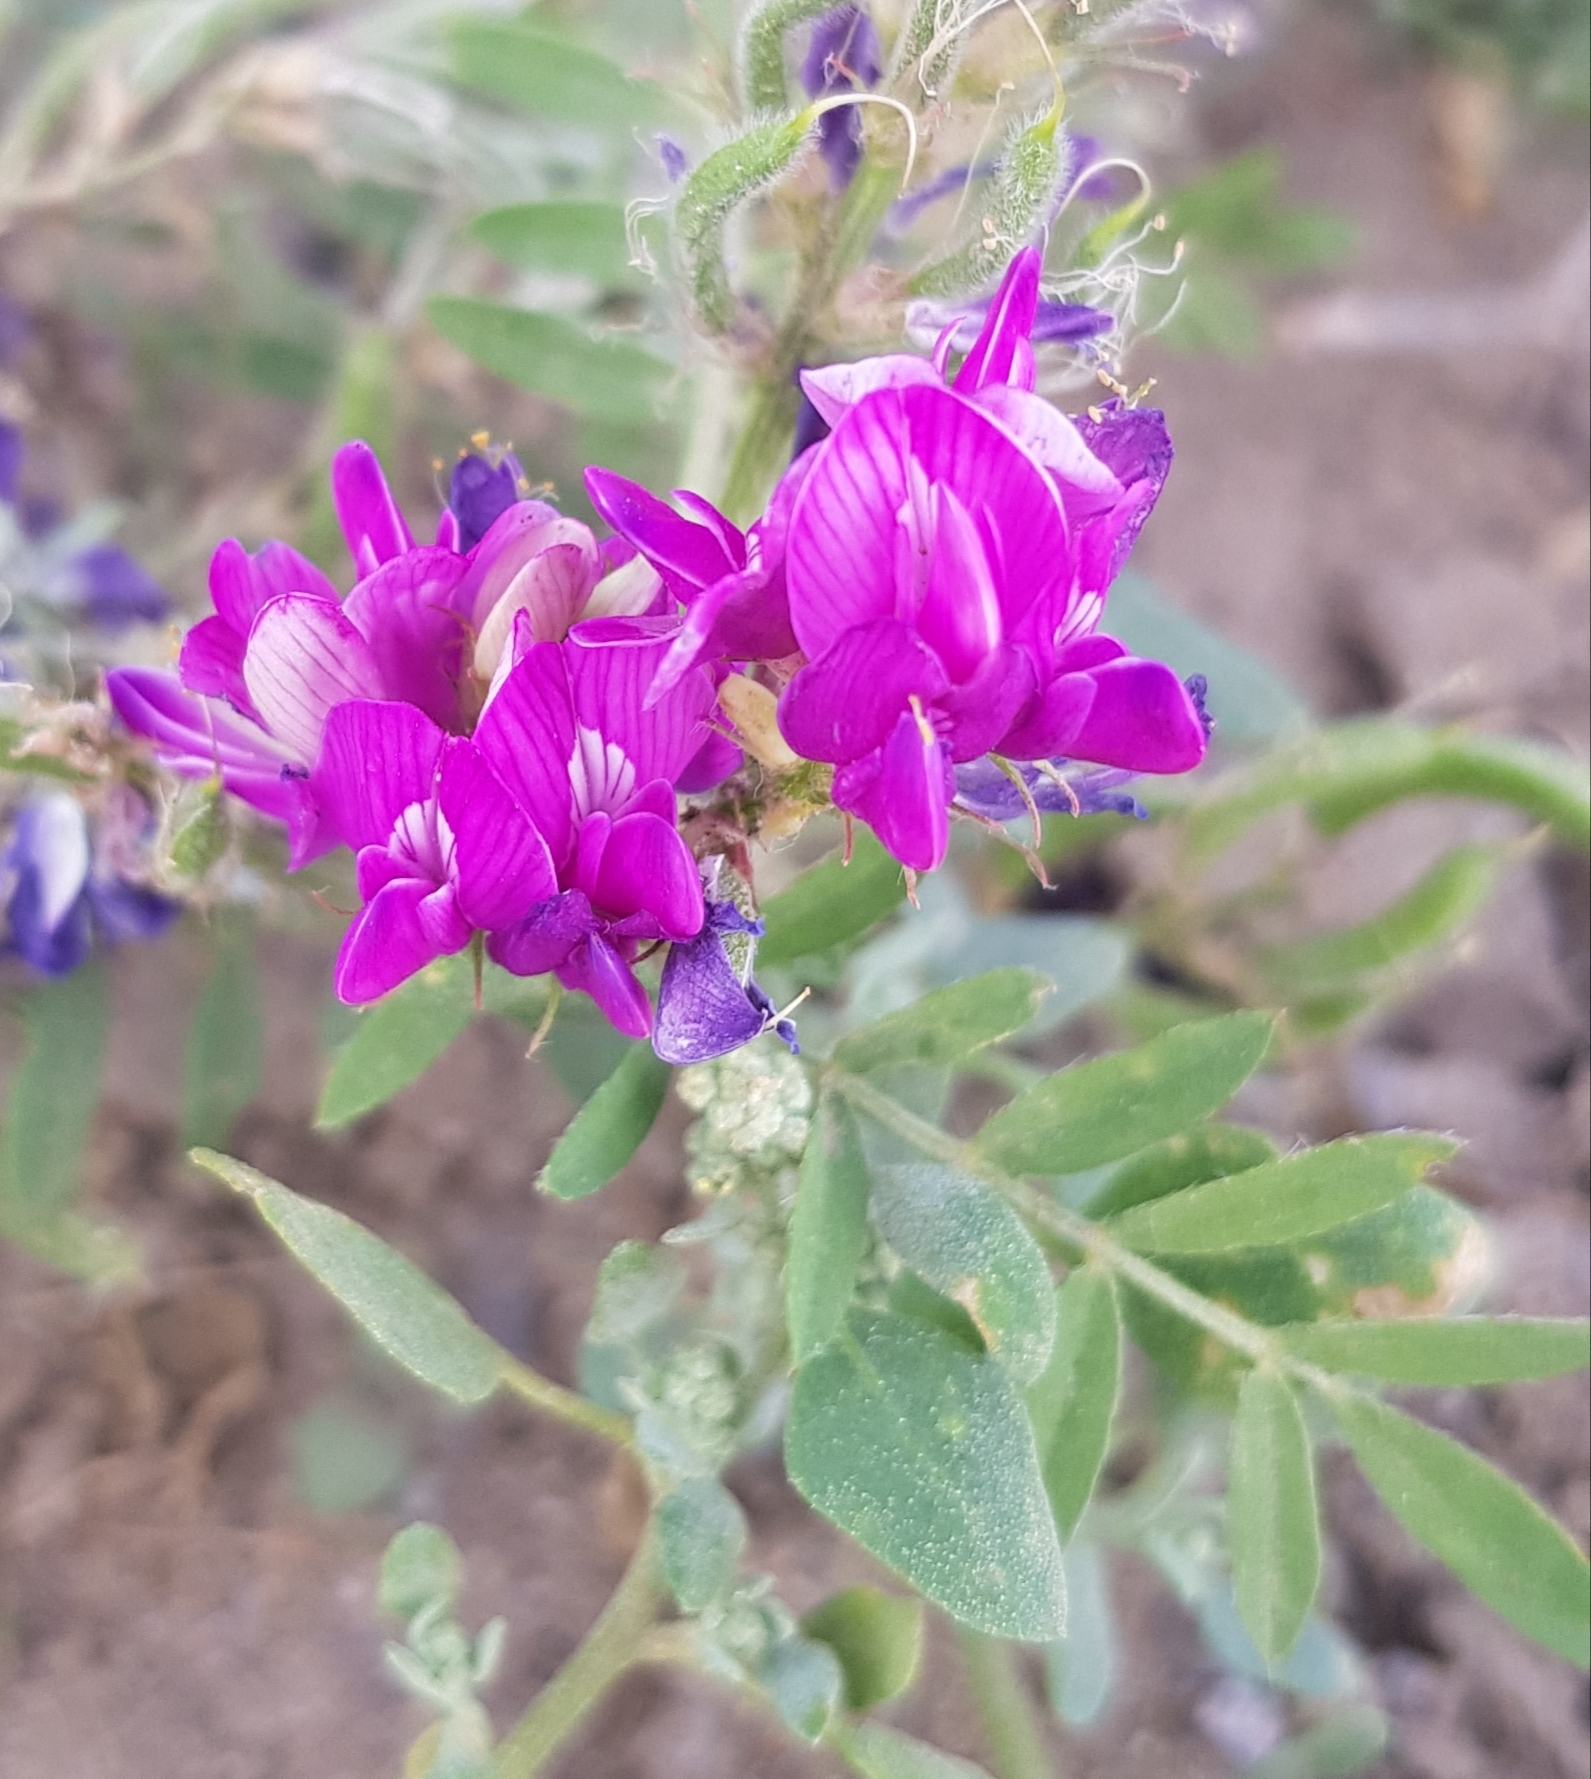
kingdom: Plantae
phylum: Tracheophyta
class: Magnoliopsida
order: Fabales
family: Fabaceae
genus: Hedysarum
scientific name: Hedysarum gmelinii
